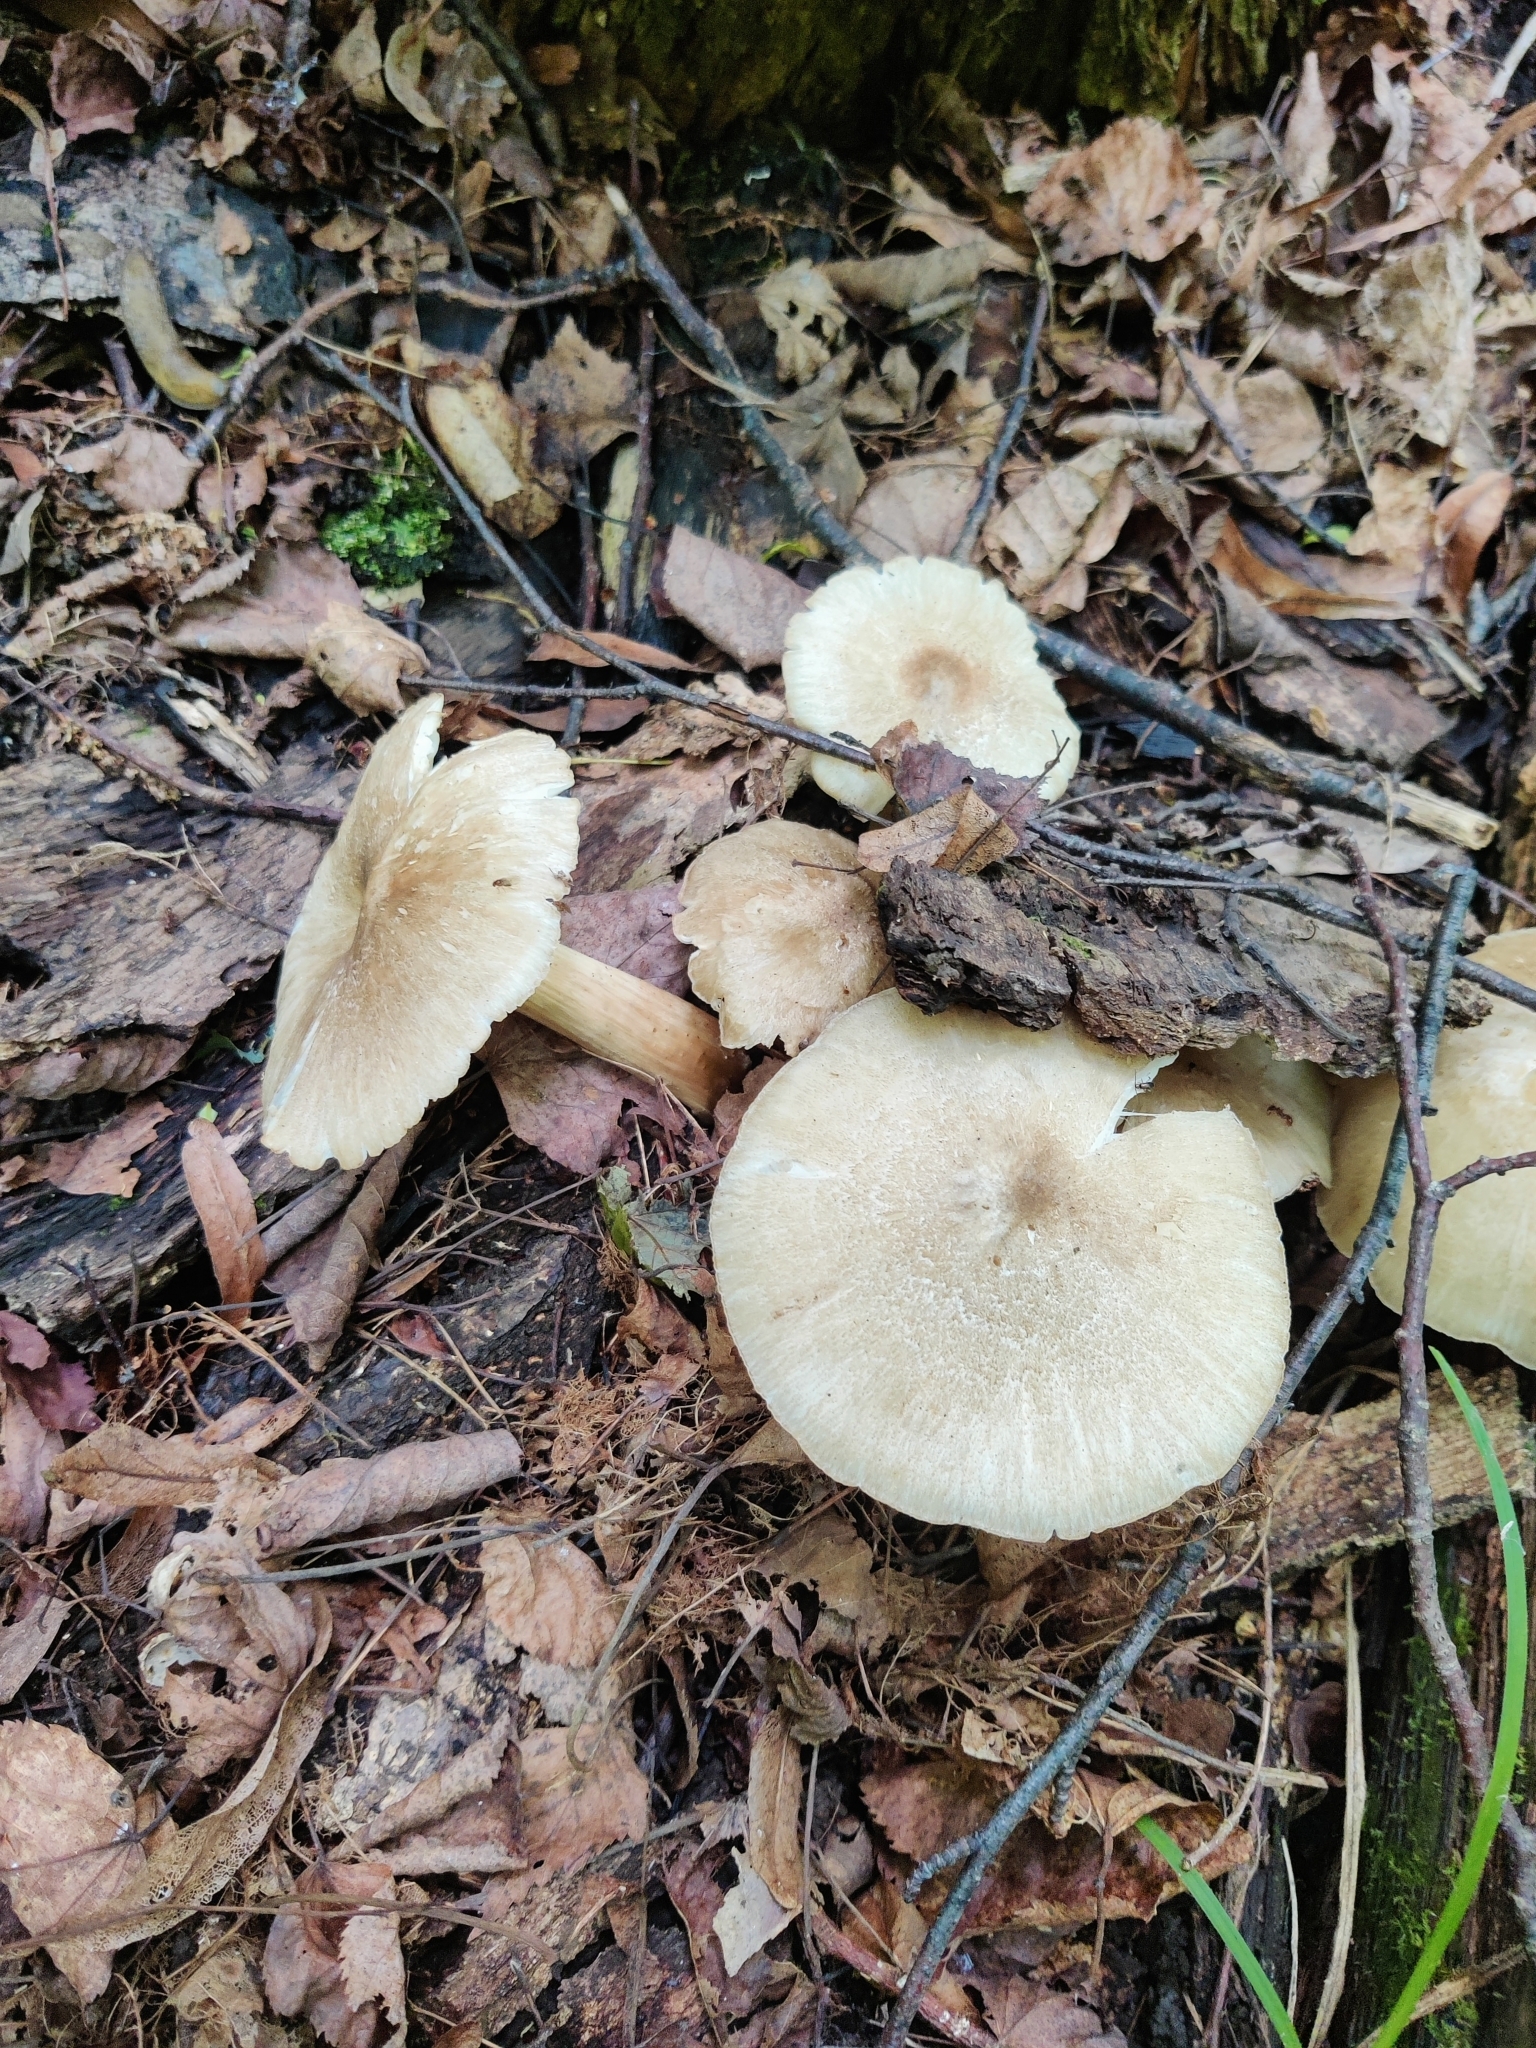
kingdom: Fungi
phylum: Basidiomycota
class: Agaricomycetes
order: Agaricales
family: Tricholomataceae
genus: Megacollybia
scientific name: Megacollybia platyphylla
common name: Whitelaced shank
